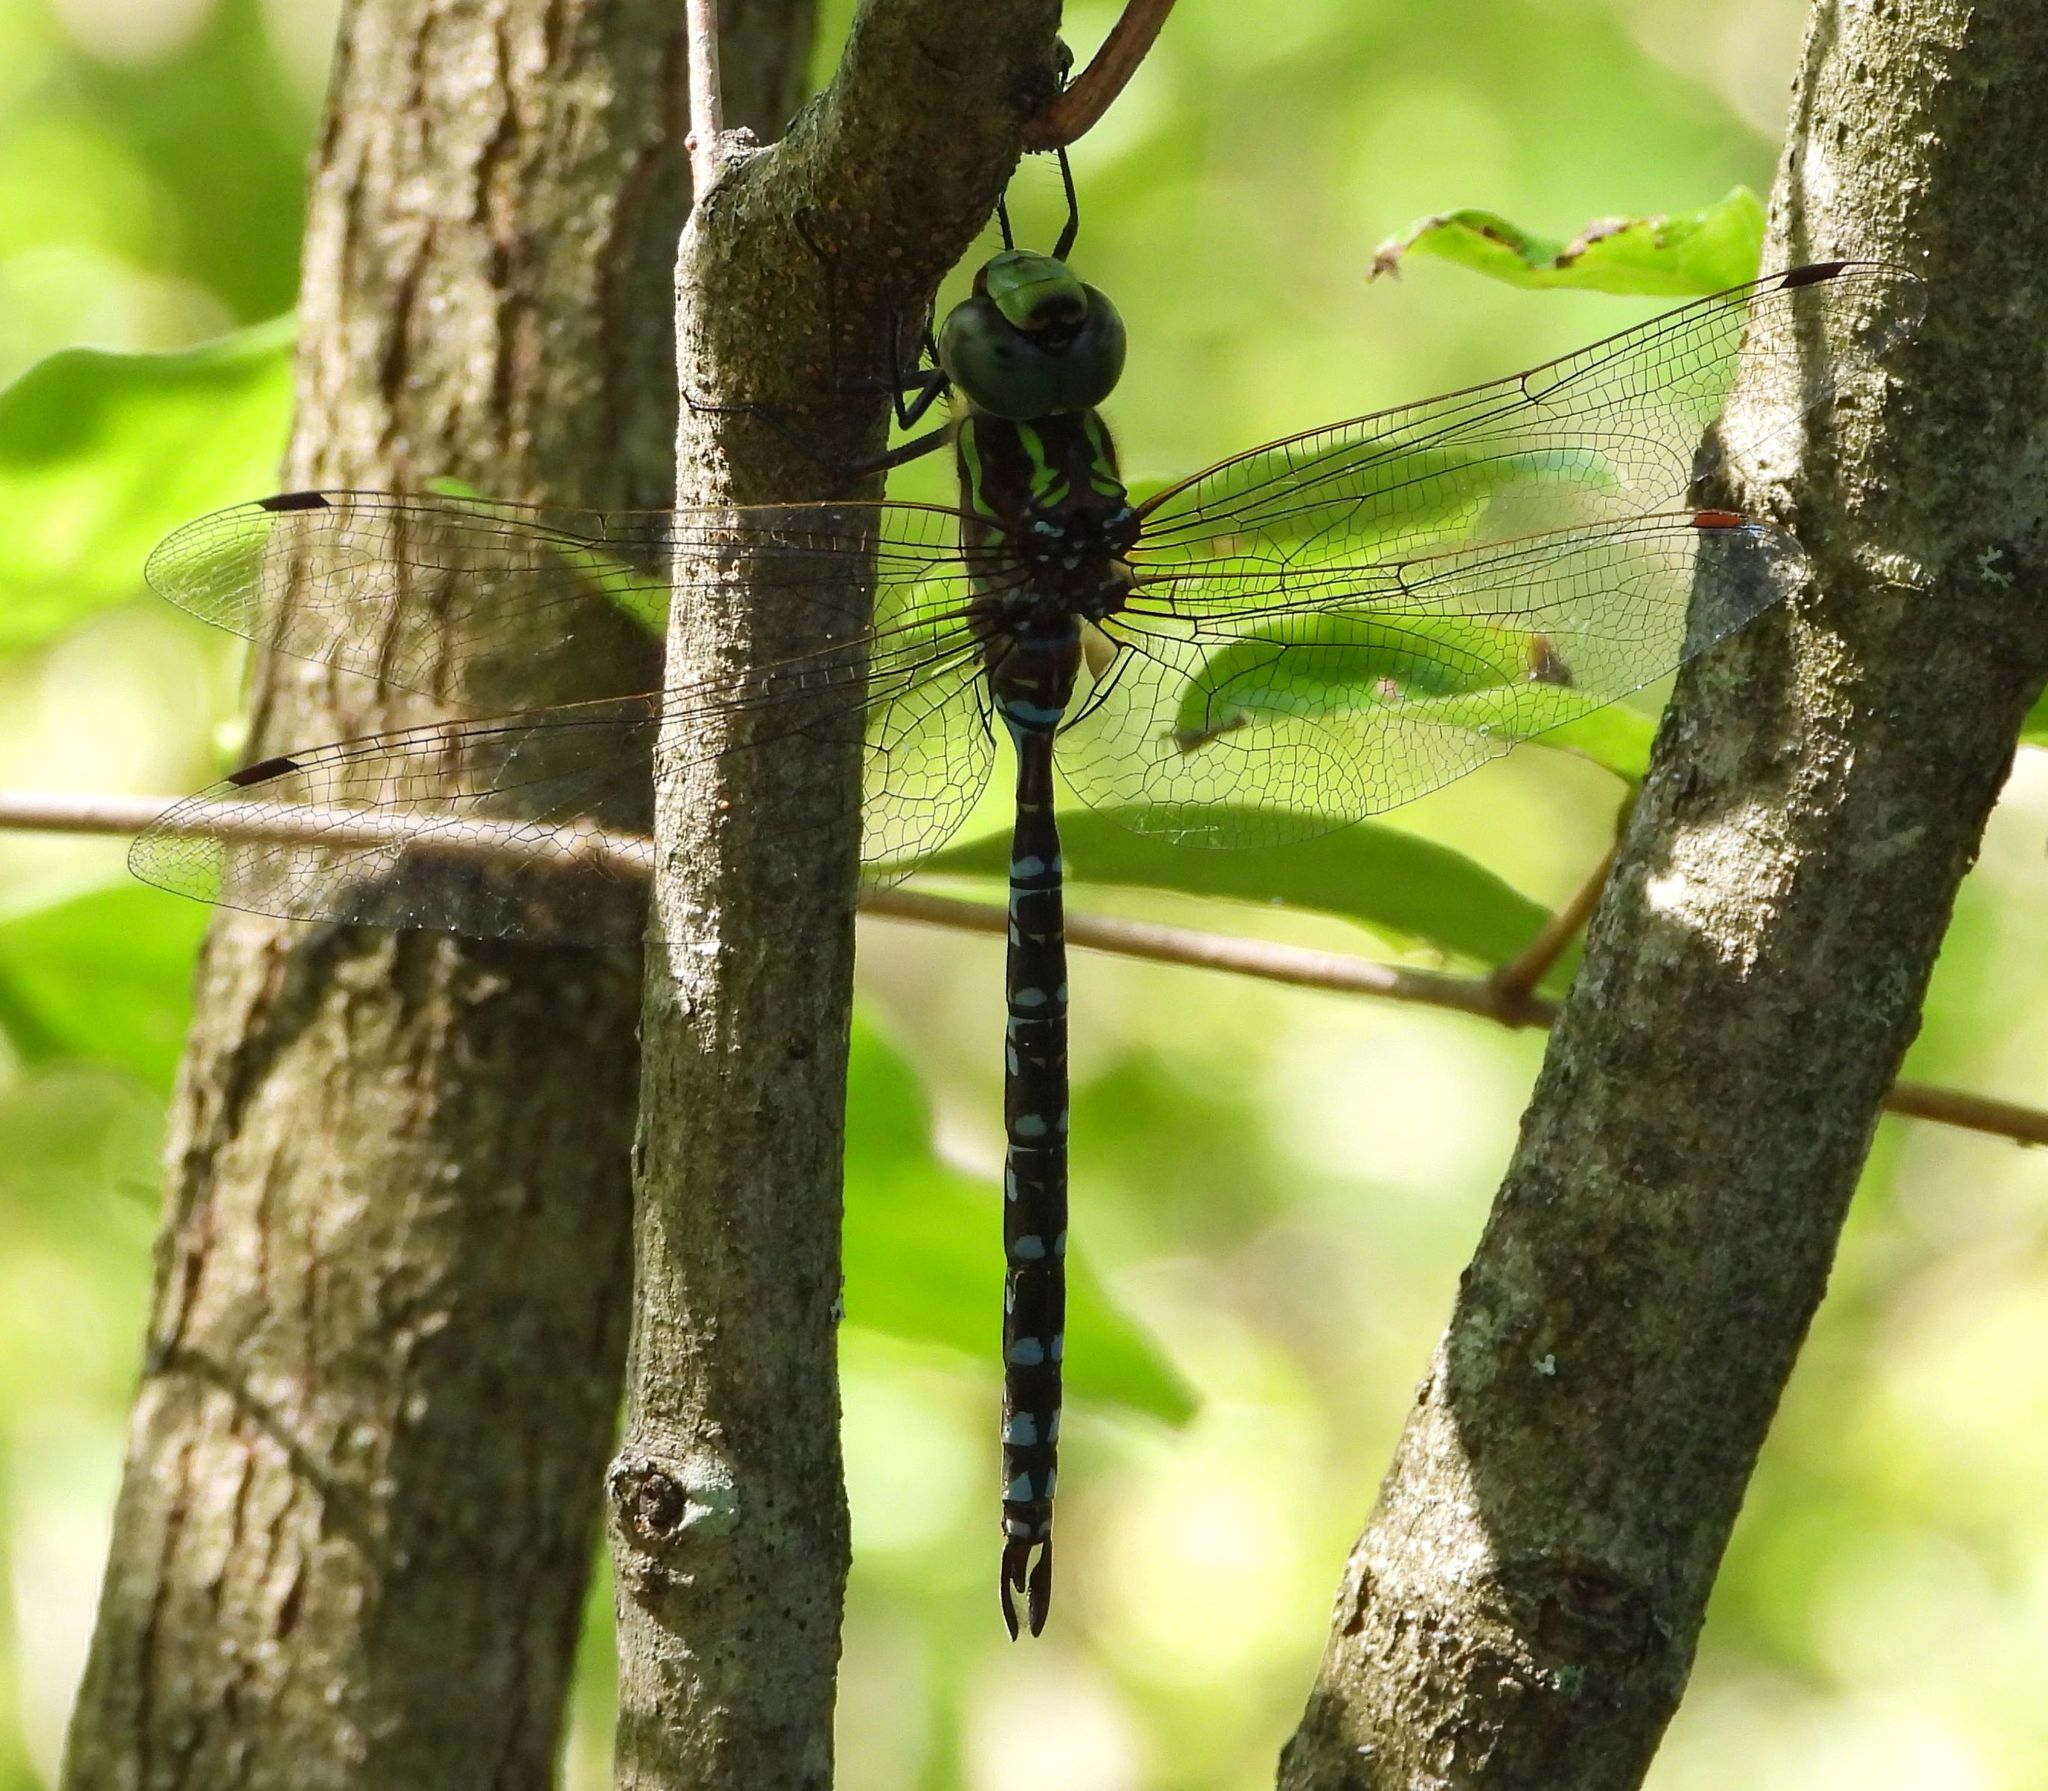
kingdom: Animalia
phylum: Arthropoda
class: Insecta
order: Odonata
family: Aeshnidae
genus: Aeshna
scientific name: Aeshna verticalis
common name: Green-striped darner
